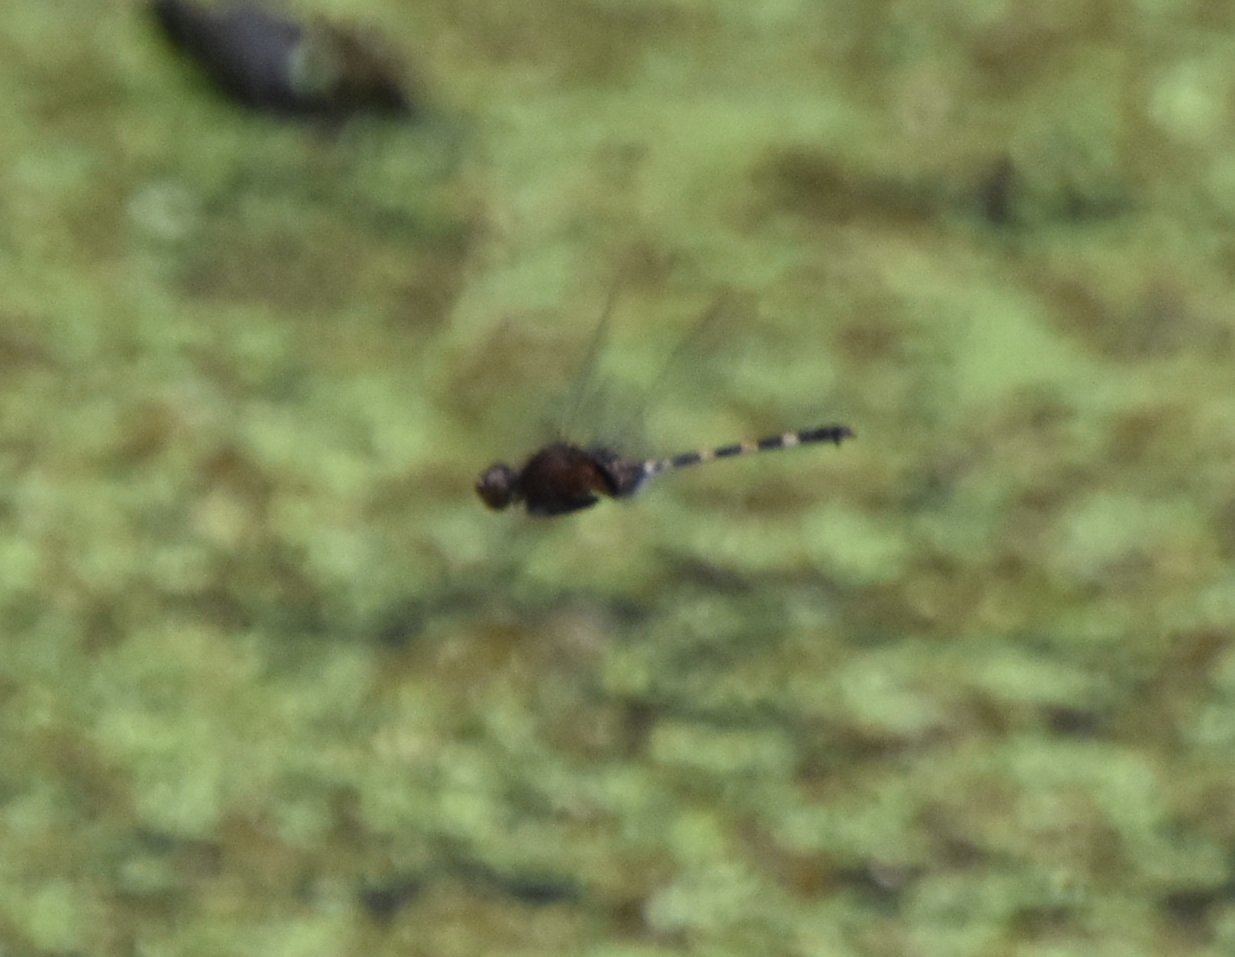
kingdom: Animalia
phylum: Arthropoda
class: Insecta
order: Odonata
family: Libellulidae
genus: Erythemis
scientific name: Erythemis plebeja
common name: Pin-tailed pondhawk
